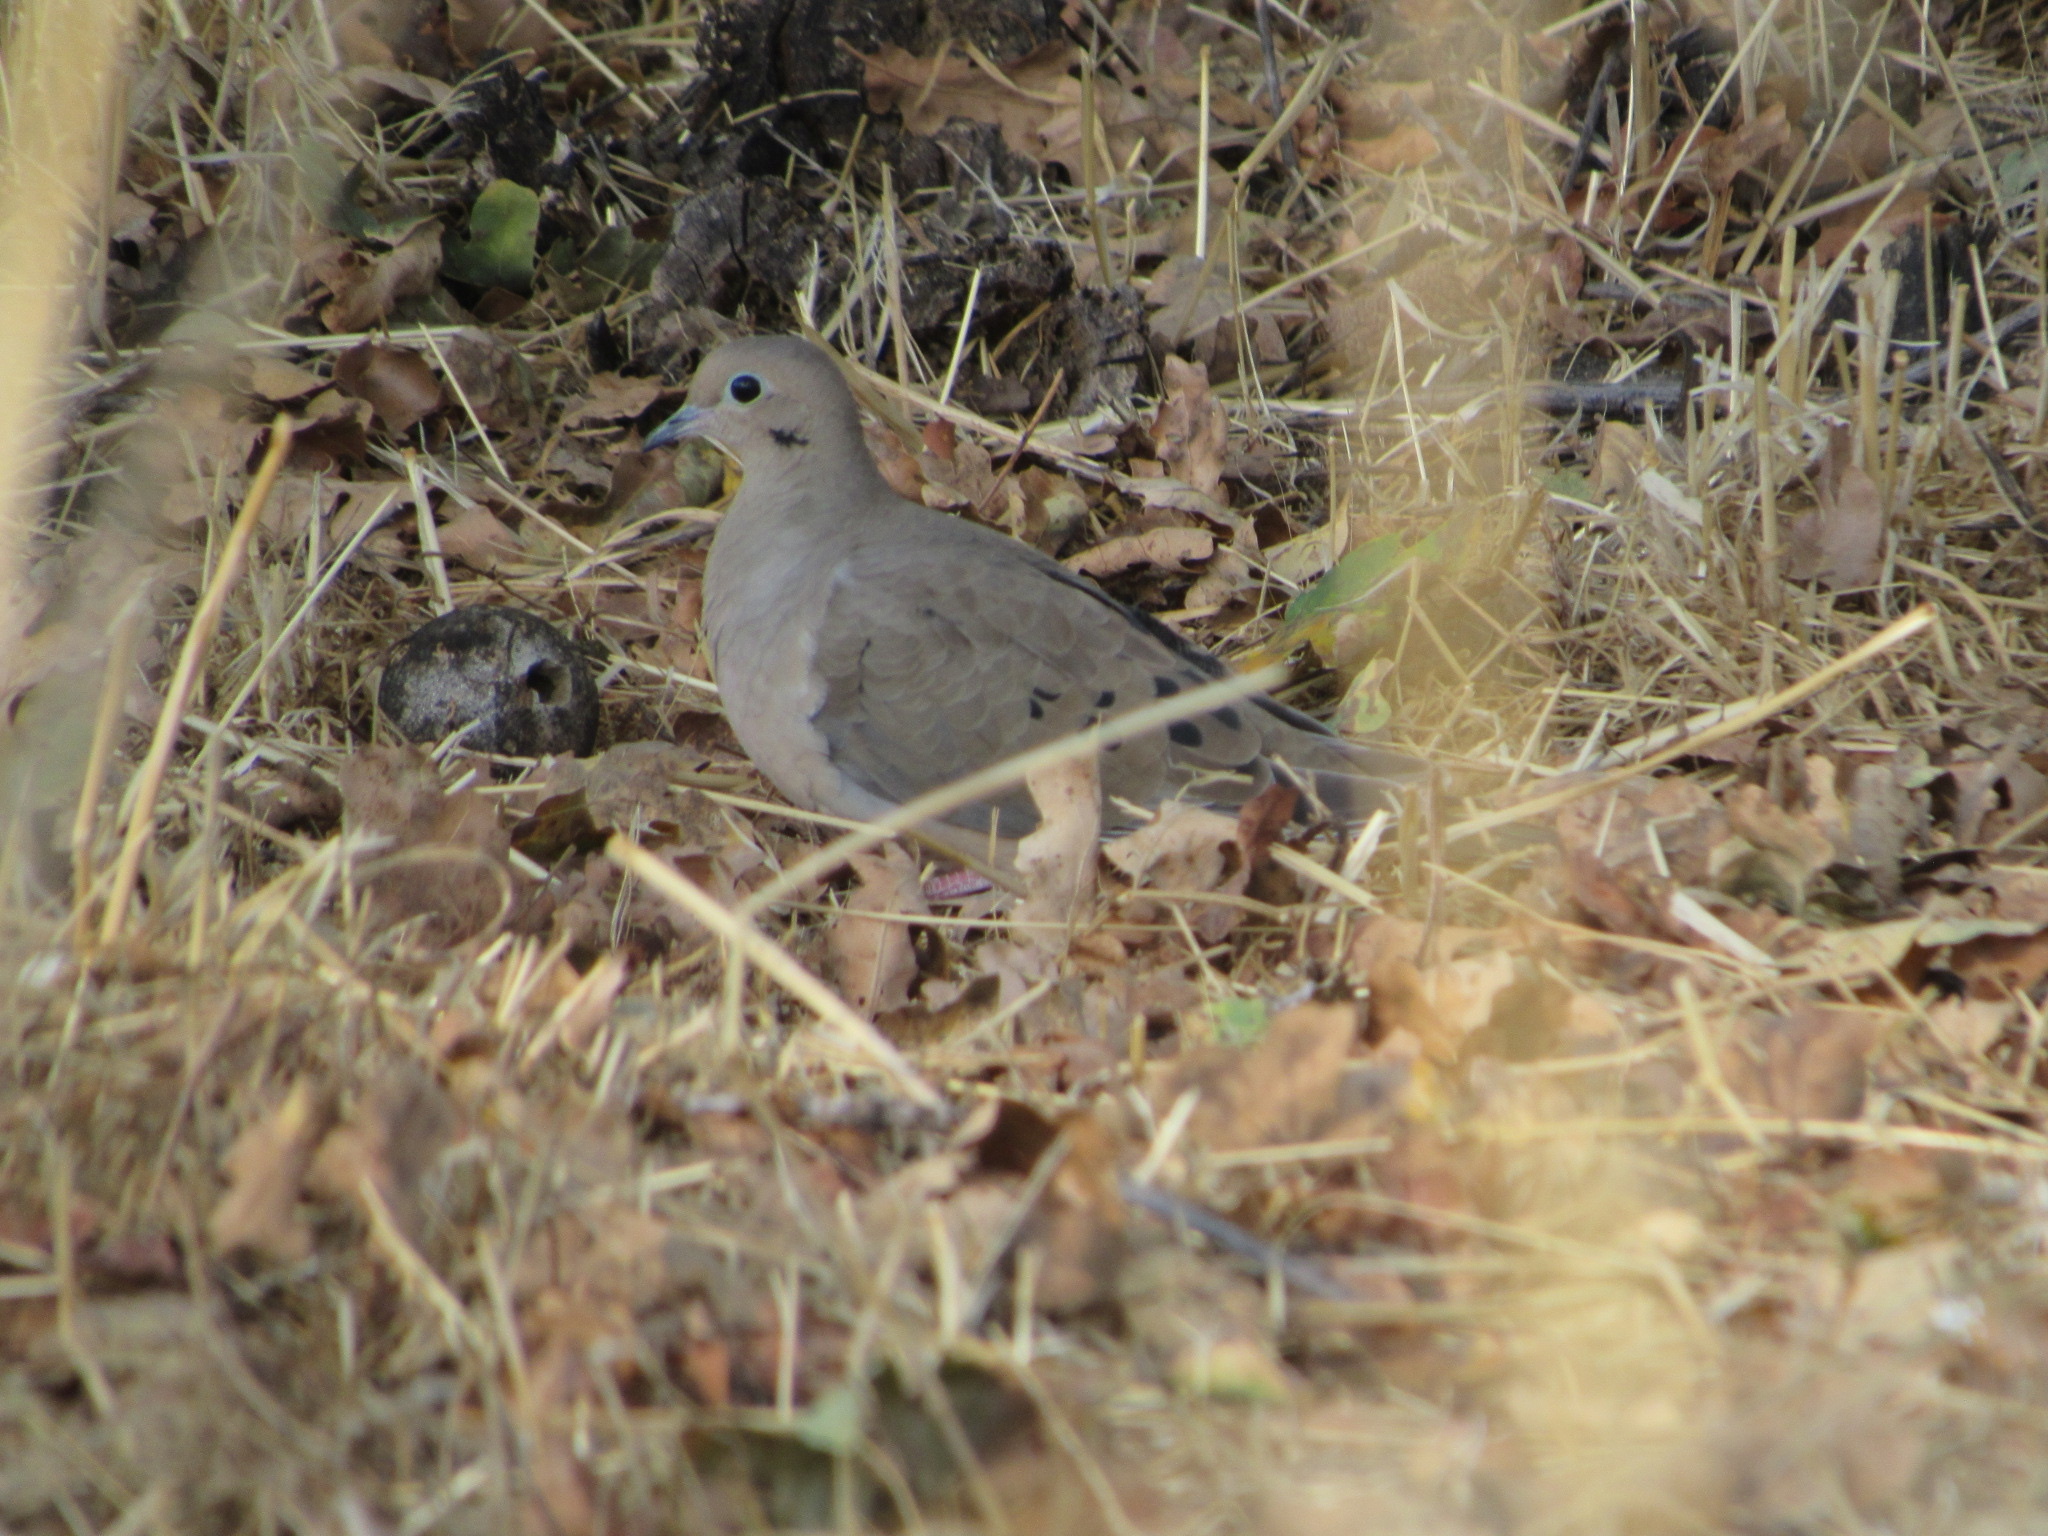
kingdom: Animalia
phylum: Chordata
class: Aves
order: Columbiformes
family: Columbidae
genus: Zenaida
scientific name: Zenaida macroura
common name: Mourning dove
